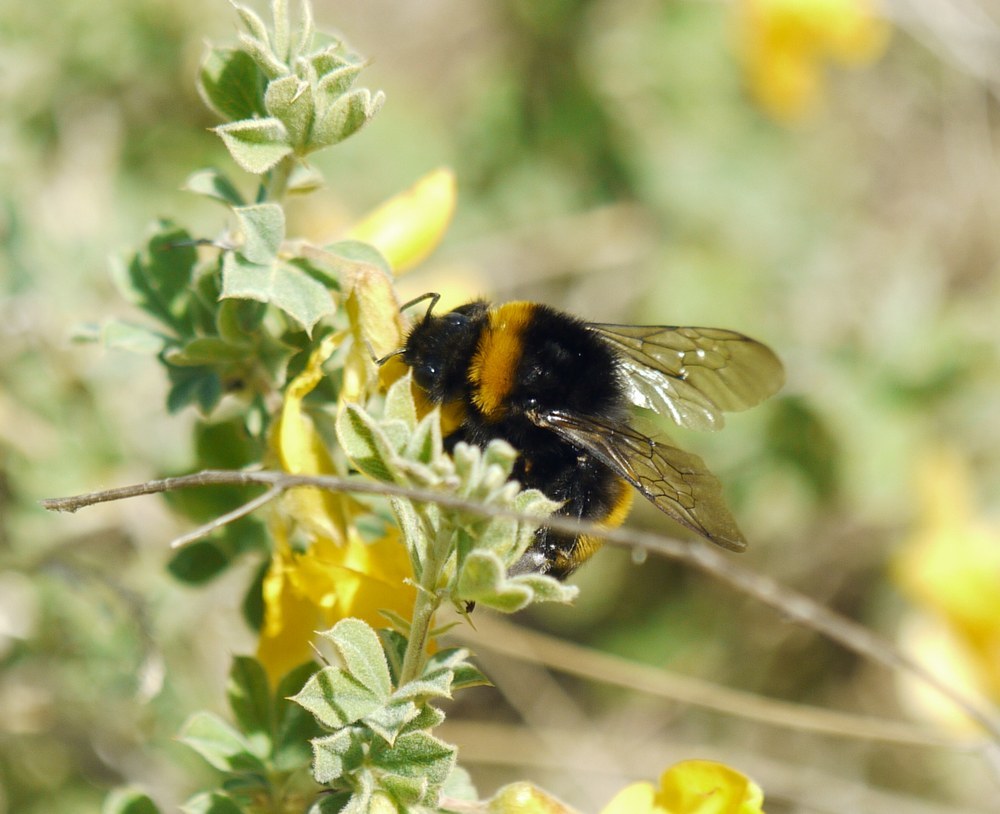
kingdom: Animalia
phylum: Arthropoda
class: Insecta
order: Hymenoptera
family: Apidae
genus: Bombus
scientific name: Bombus
